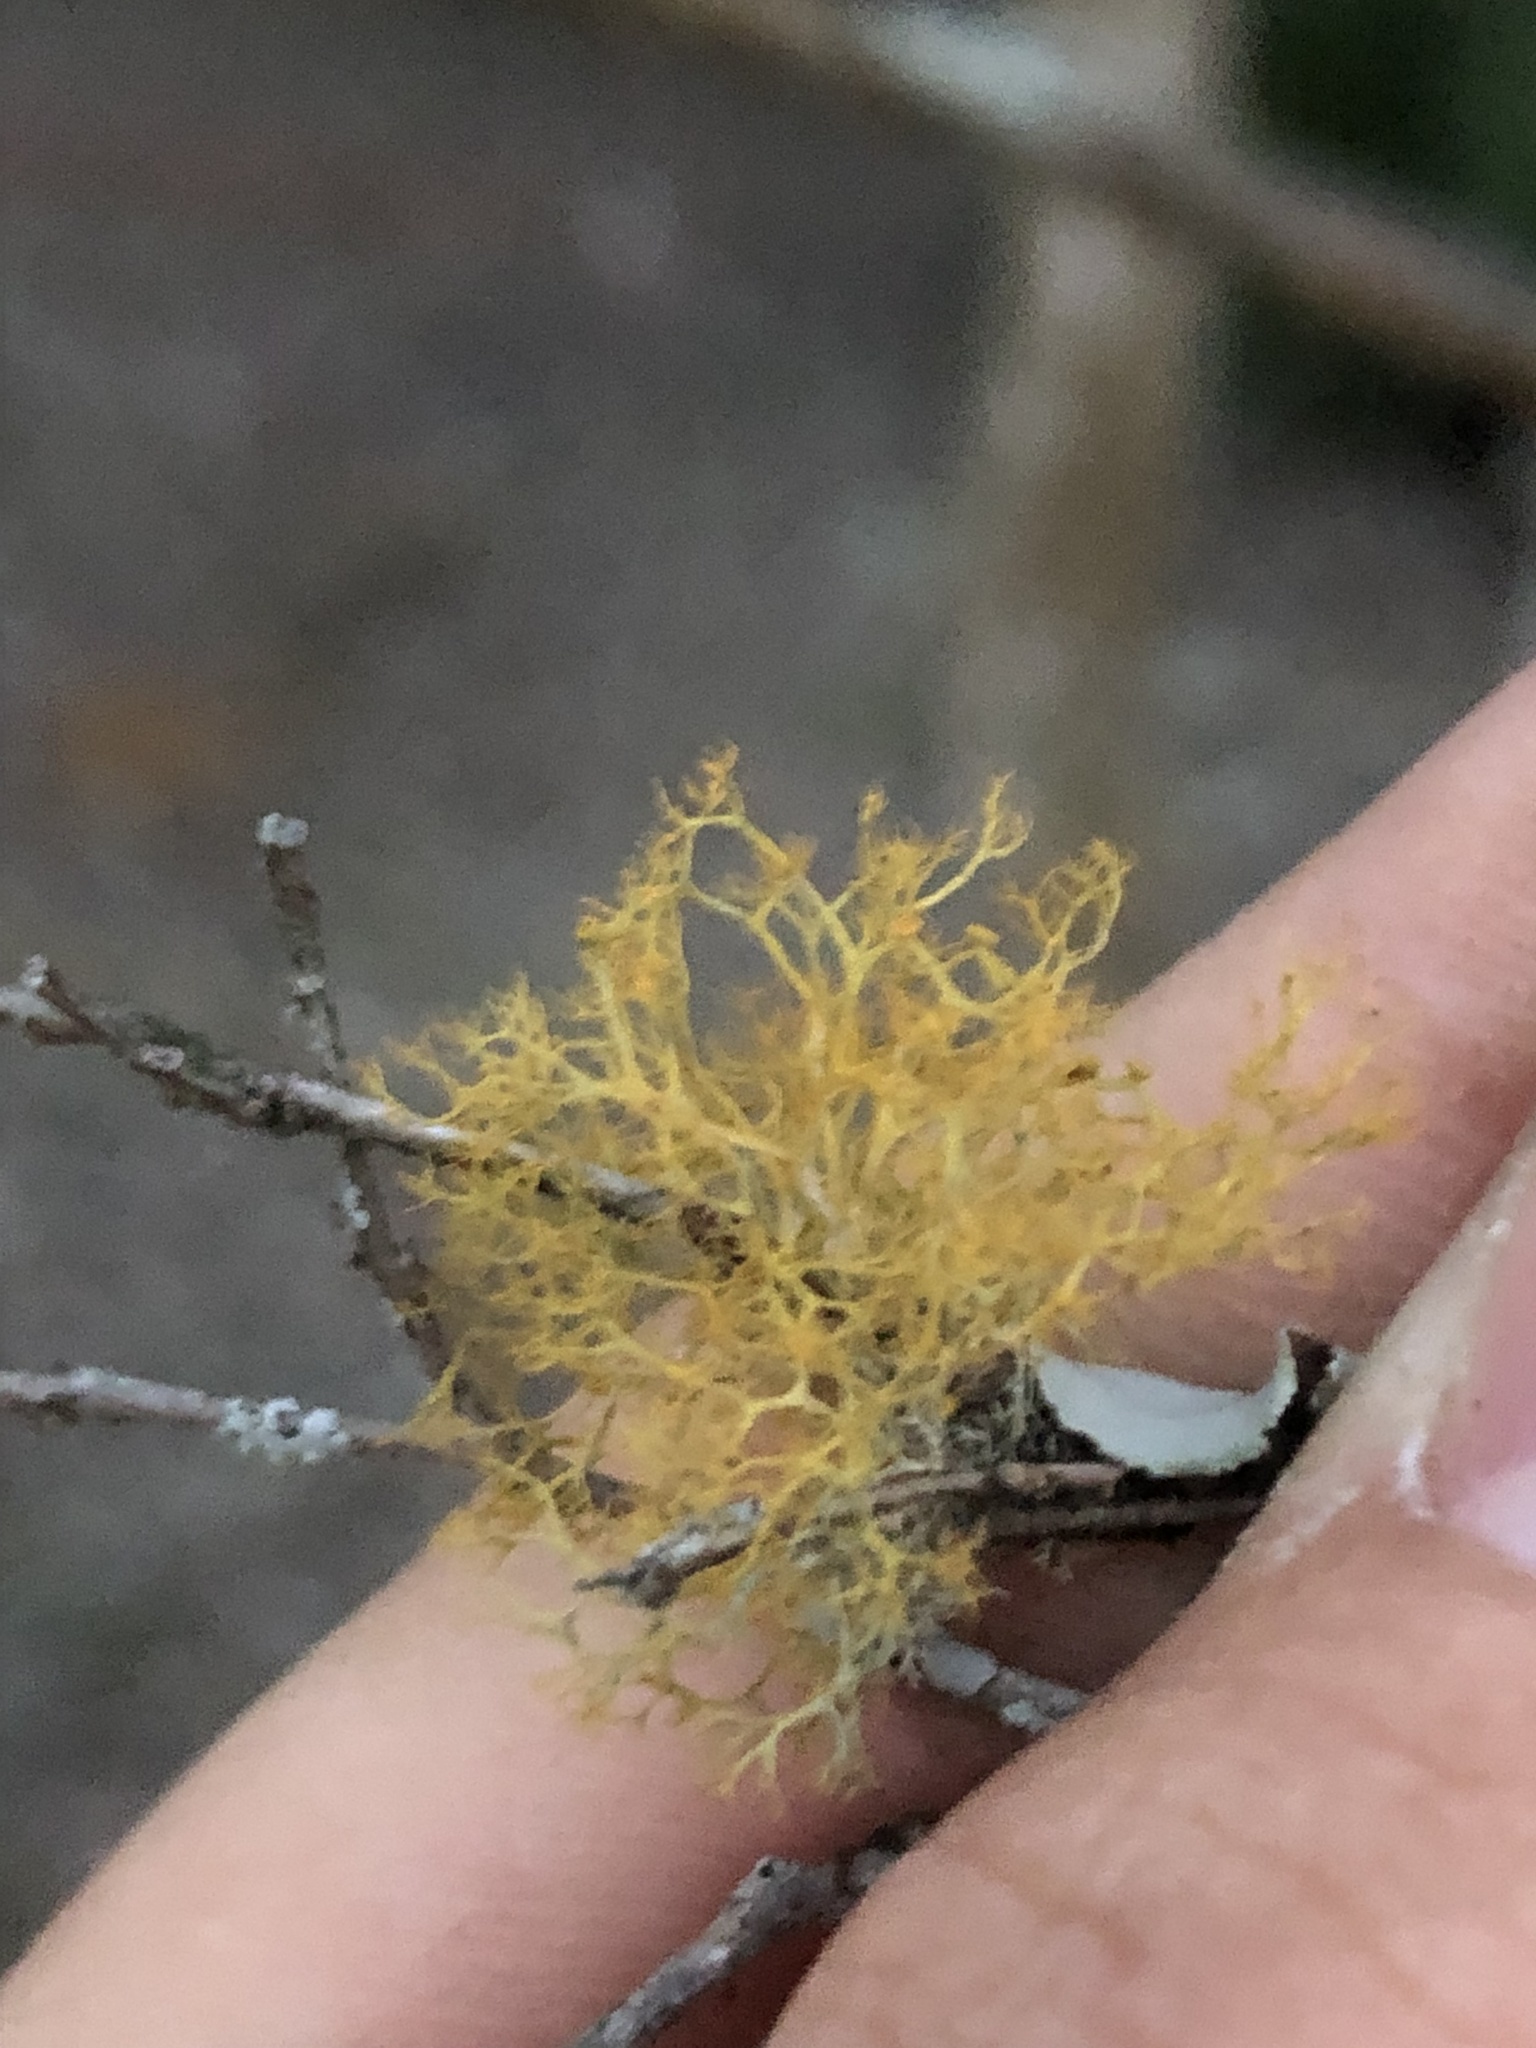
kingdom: Fungi
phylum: Ascomycota
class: Lecanoromycetes
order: Teloschistales
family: Teloschistaceae
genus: Teloschistes
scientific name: Teloschistes exilis
